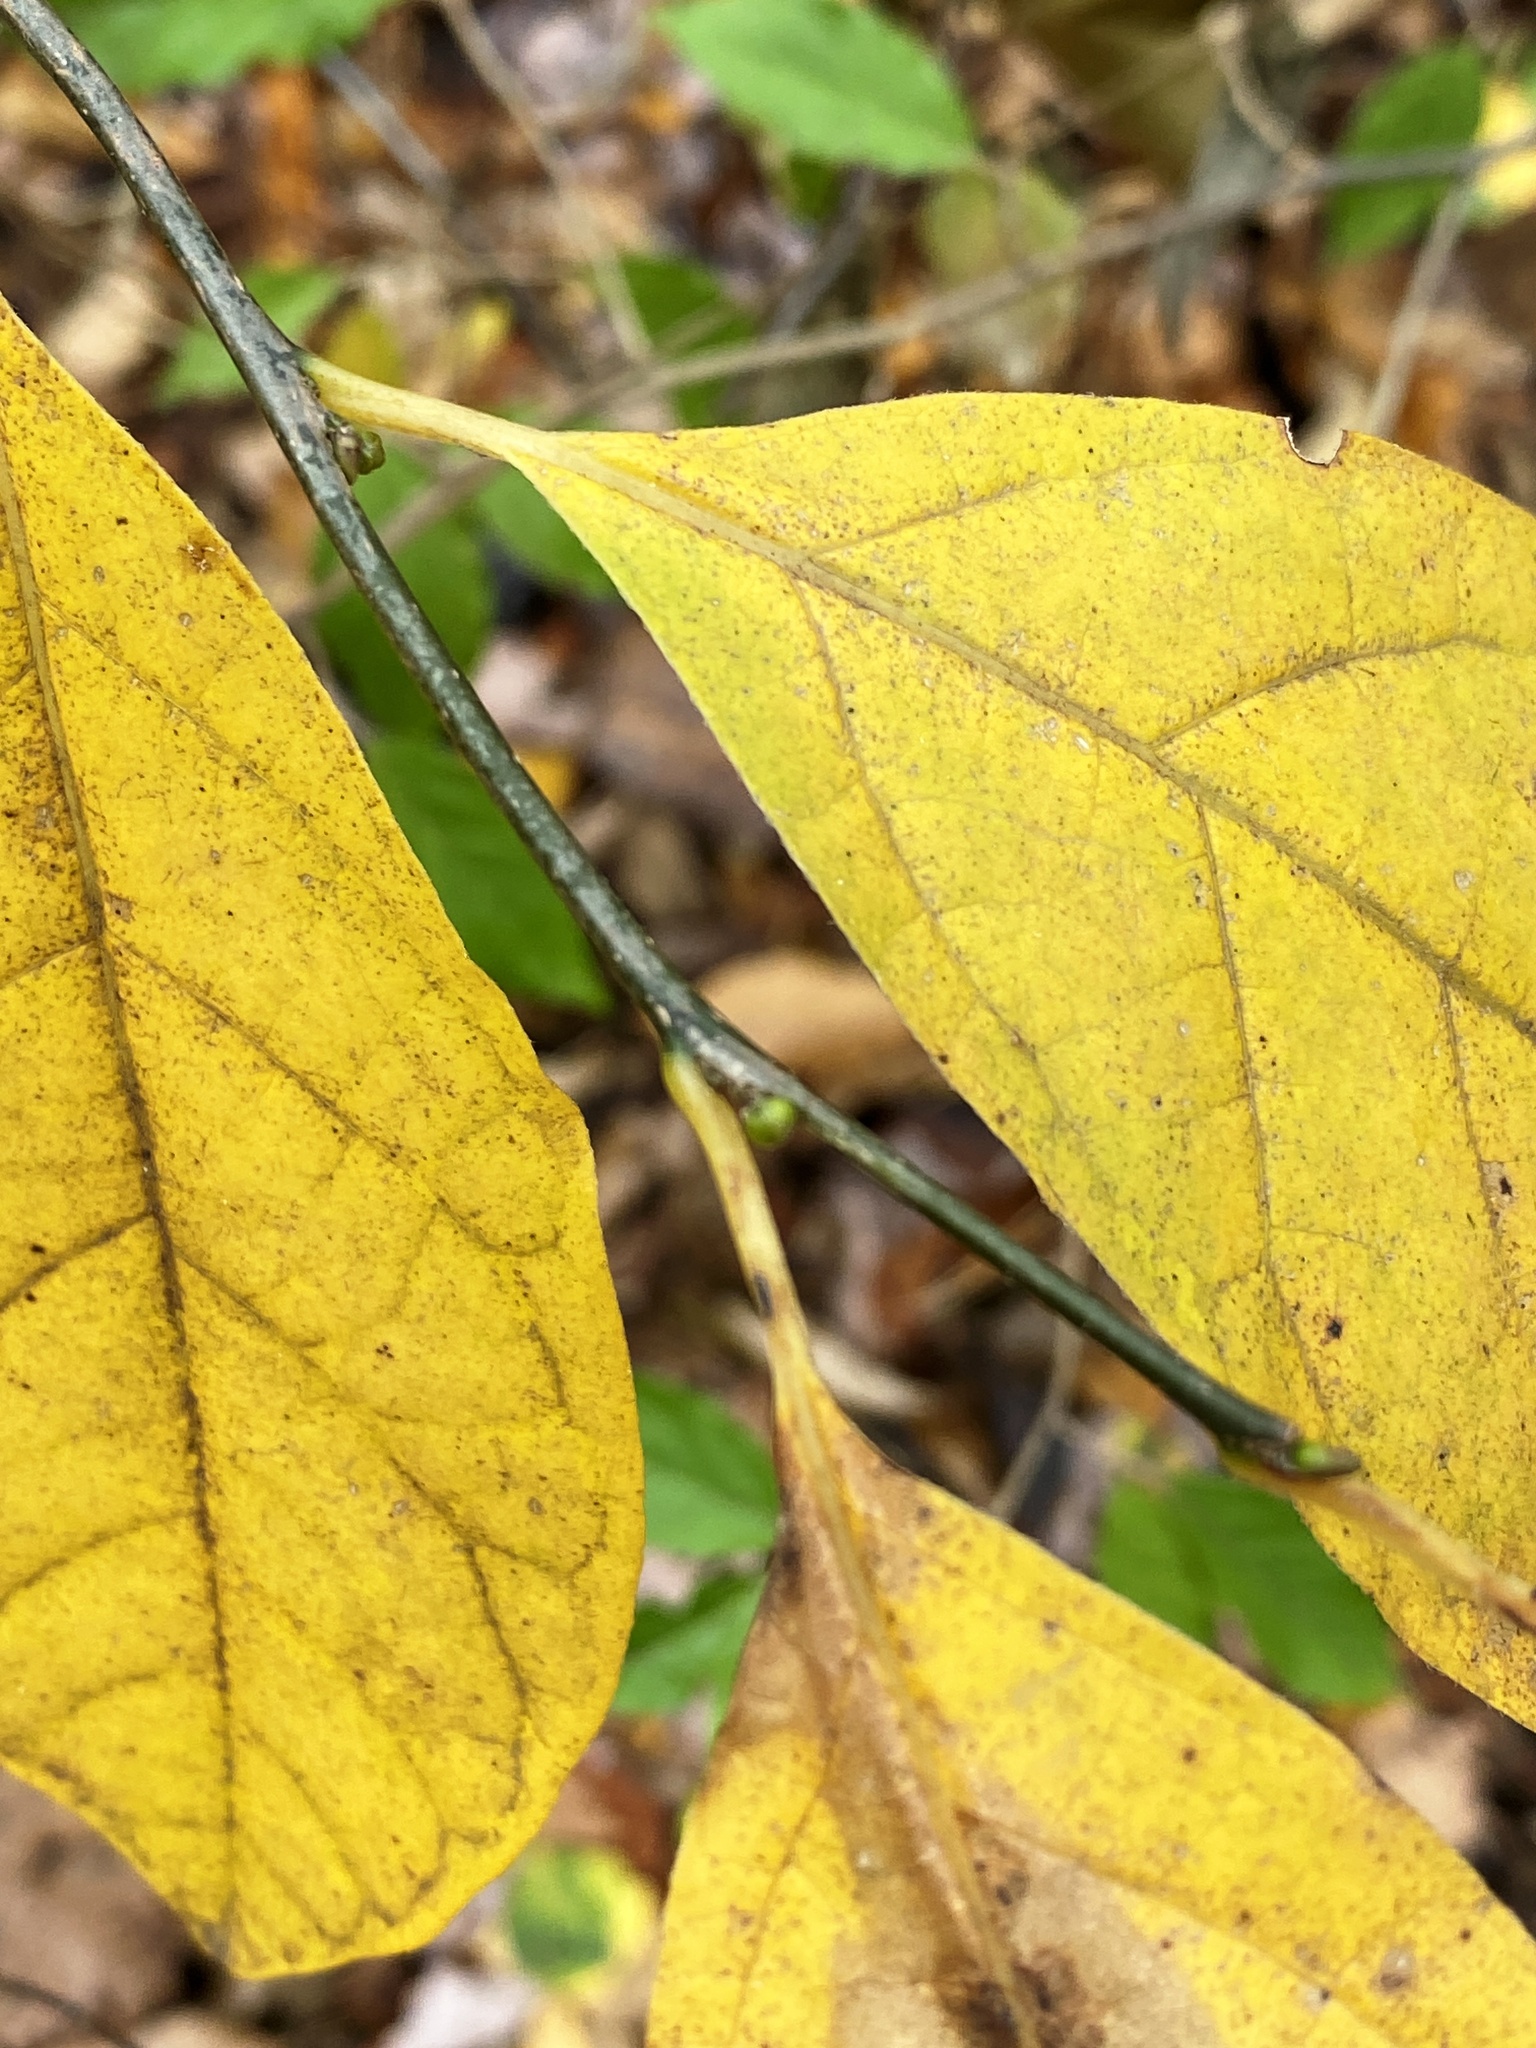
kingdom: Plantae
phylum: Tracheophyta
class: Magnoliopsida
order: Laurales
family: Lauraceae
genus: Lindera
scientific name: Lindera benzoin
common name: Spicebush
